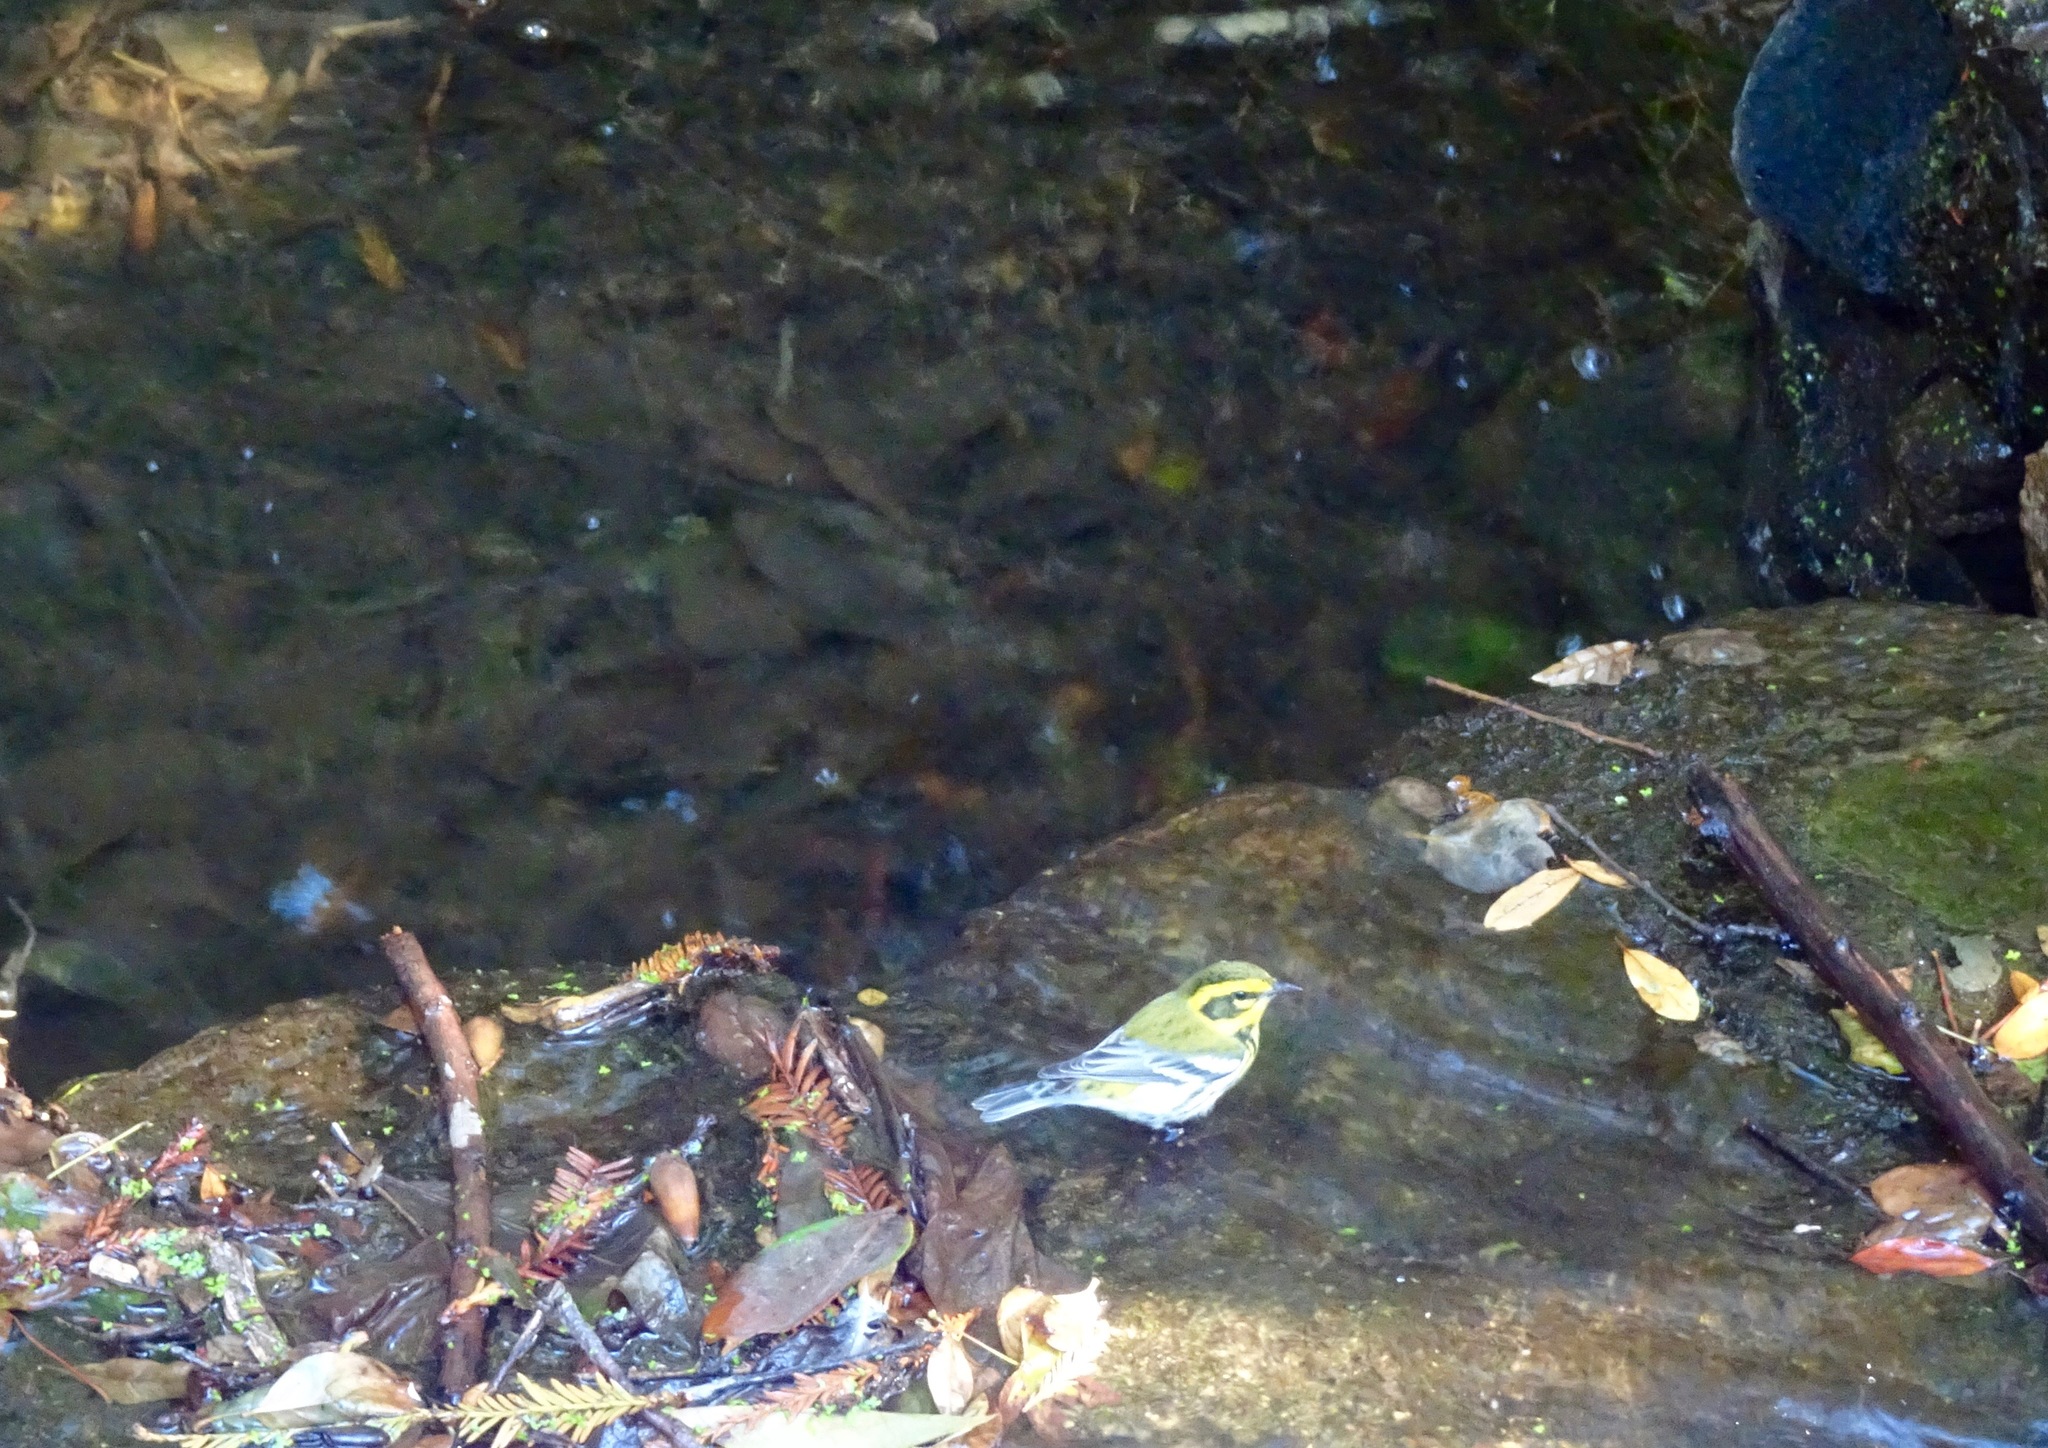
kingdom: Animalia
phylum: Chordata
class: Aves
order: Passeriformes
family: Parulidae
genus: Setophaga
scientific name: Setophaga townsendi
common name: Townsend's warbler
